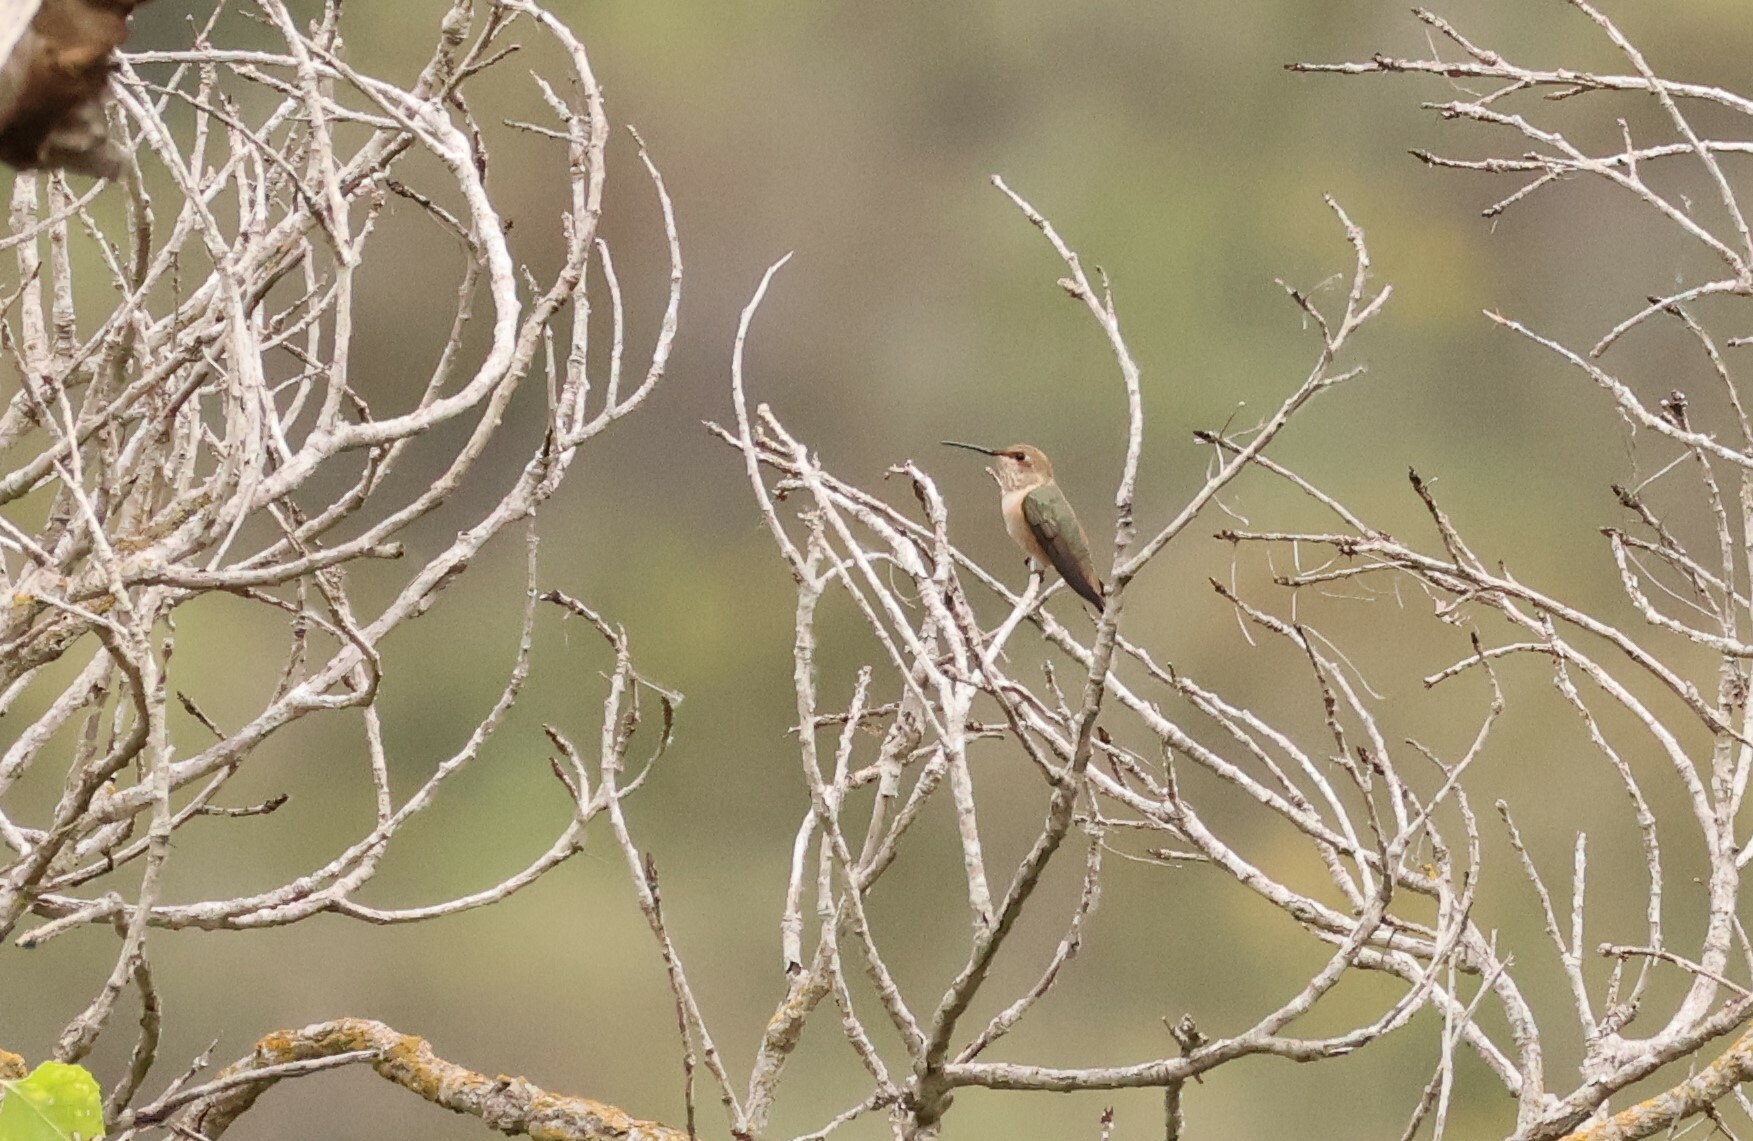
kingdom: Animalia
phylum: Chordata
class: Aves
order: Apodiformes
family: Trochilidae
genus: Selasphorus
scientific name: Selasphorus sasin
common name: Allen's hummingbird
